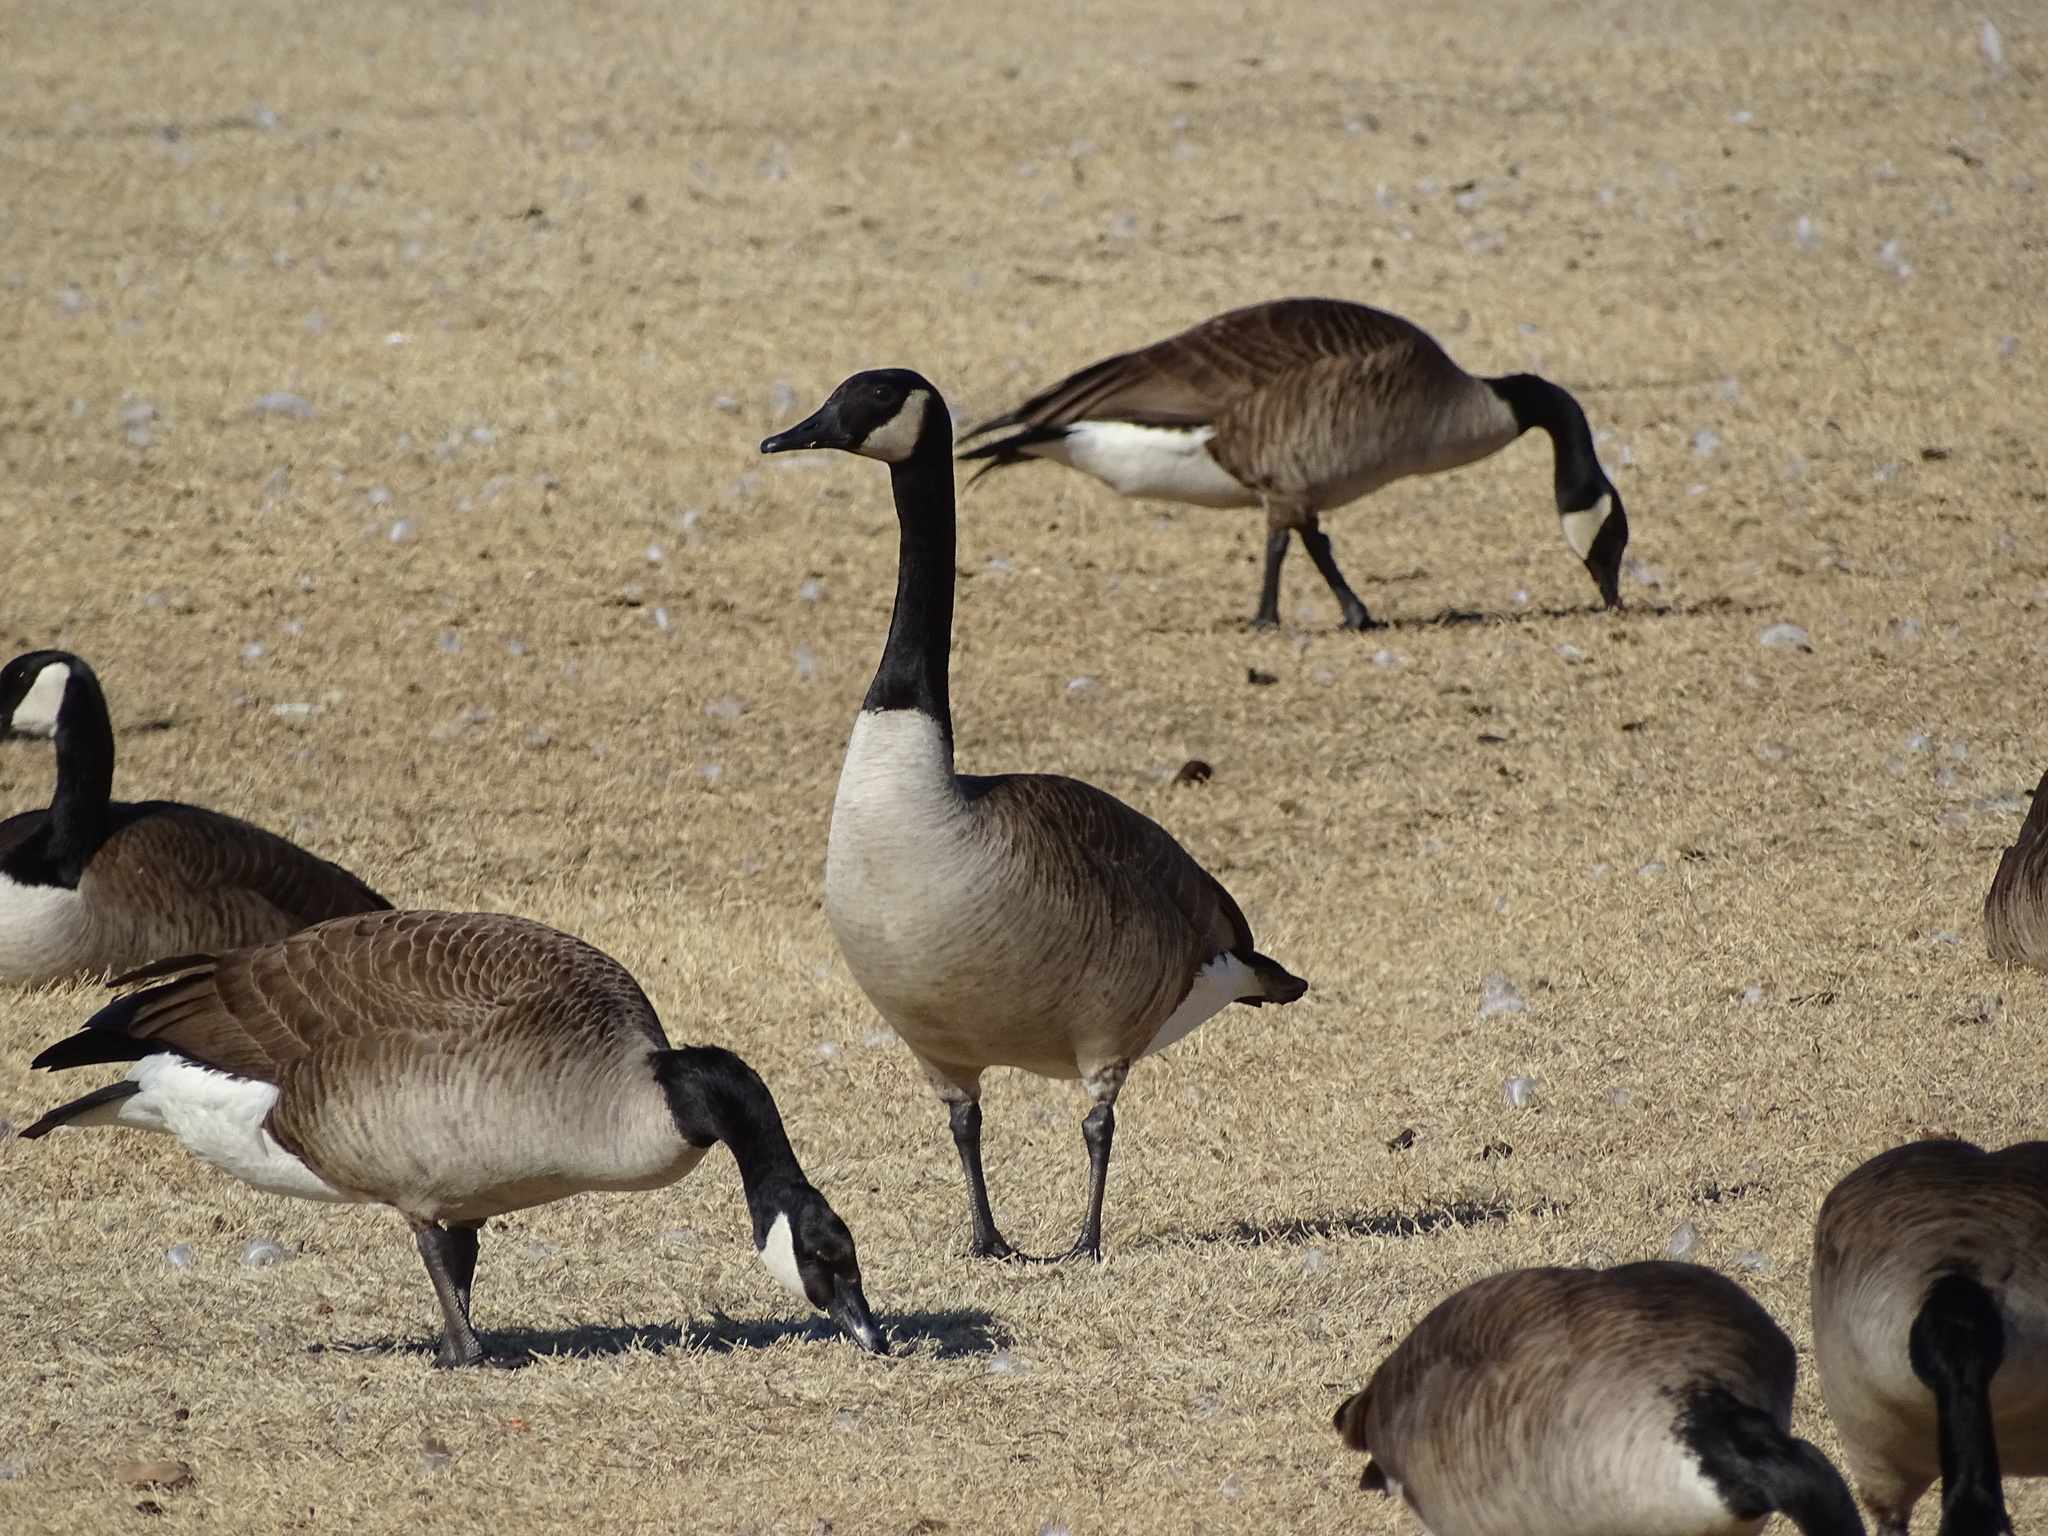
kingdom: Animalia
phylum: Chordata
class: Aves
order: Anseriformes
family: Anatidae
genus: Branta
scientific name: Branta canadensis
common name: Canada goose
